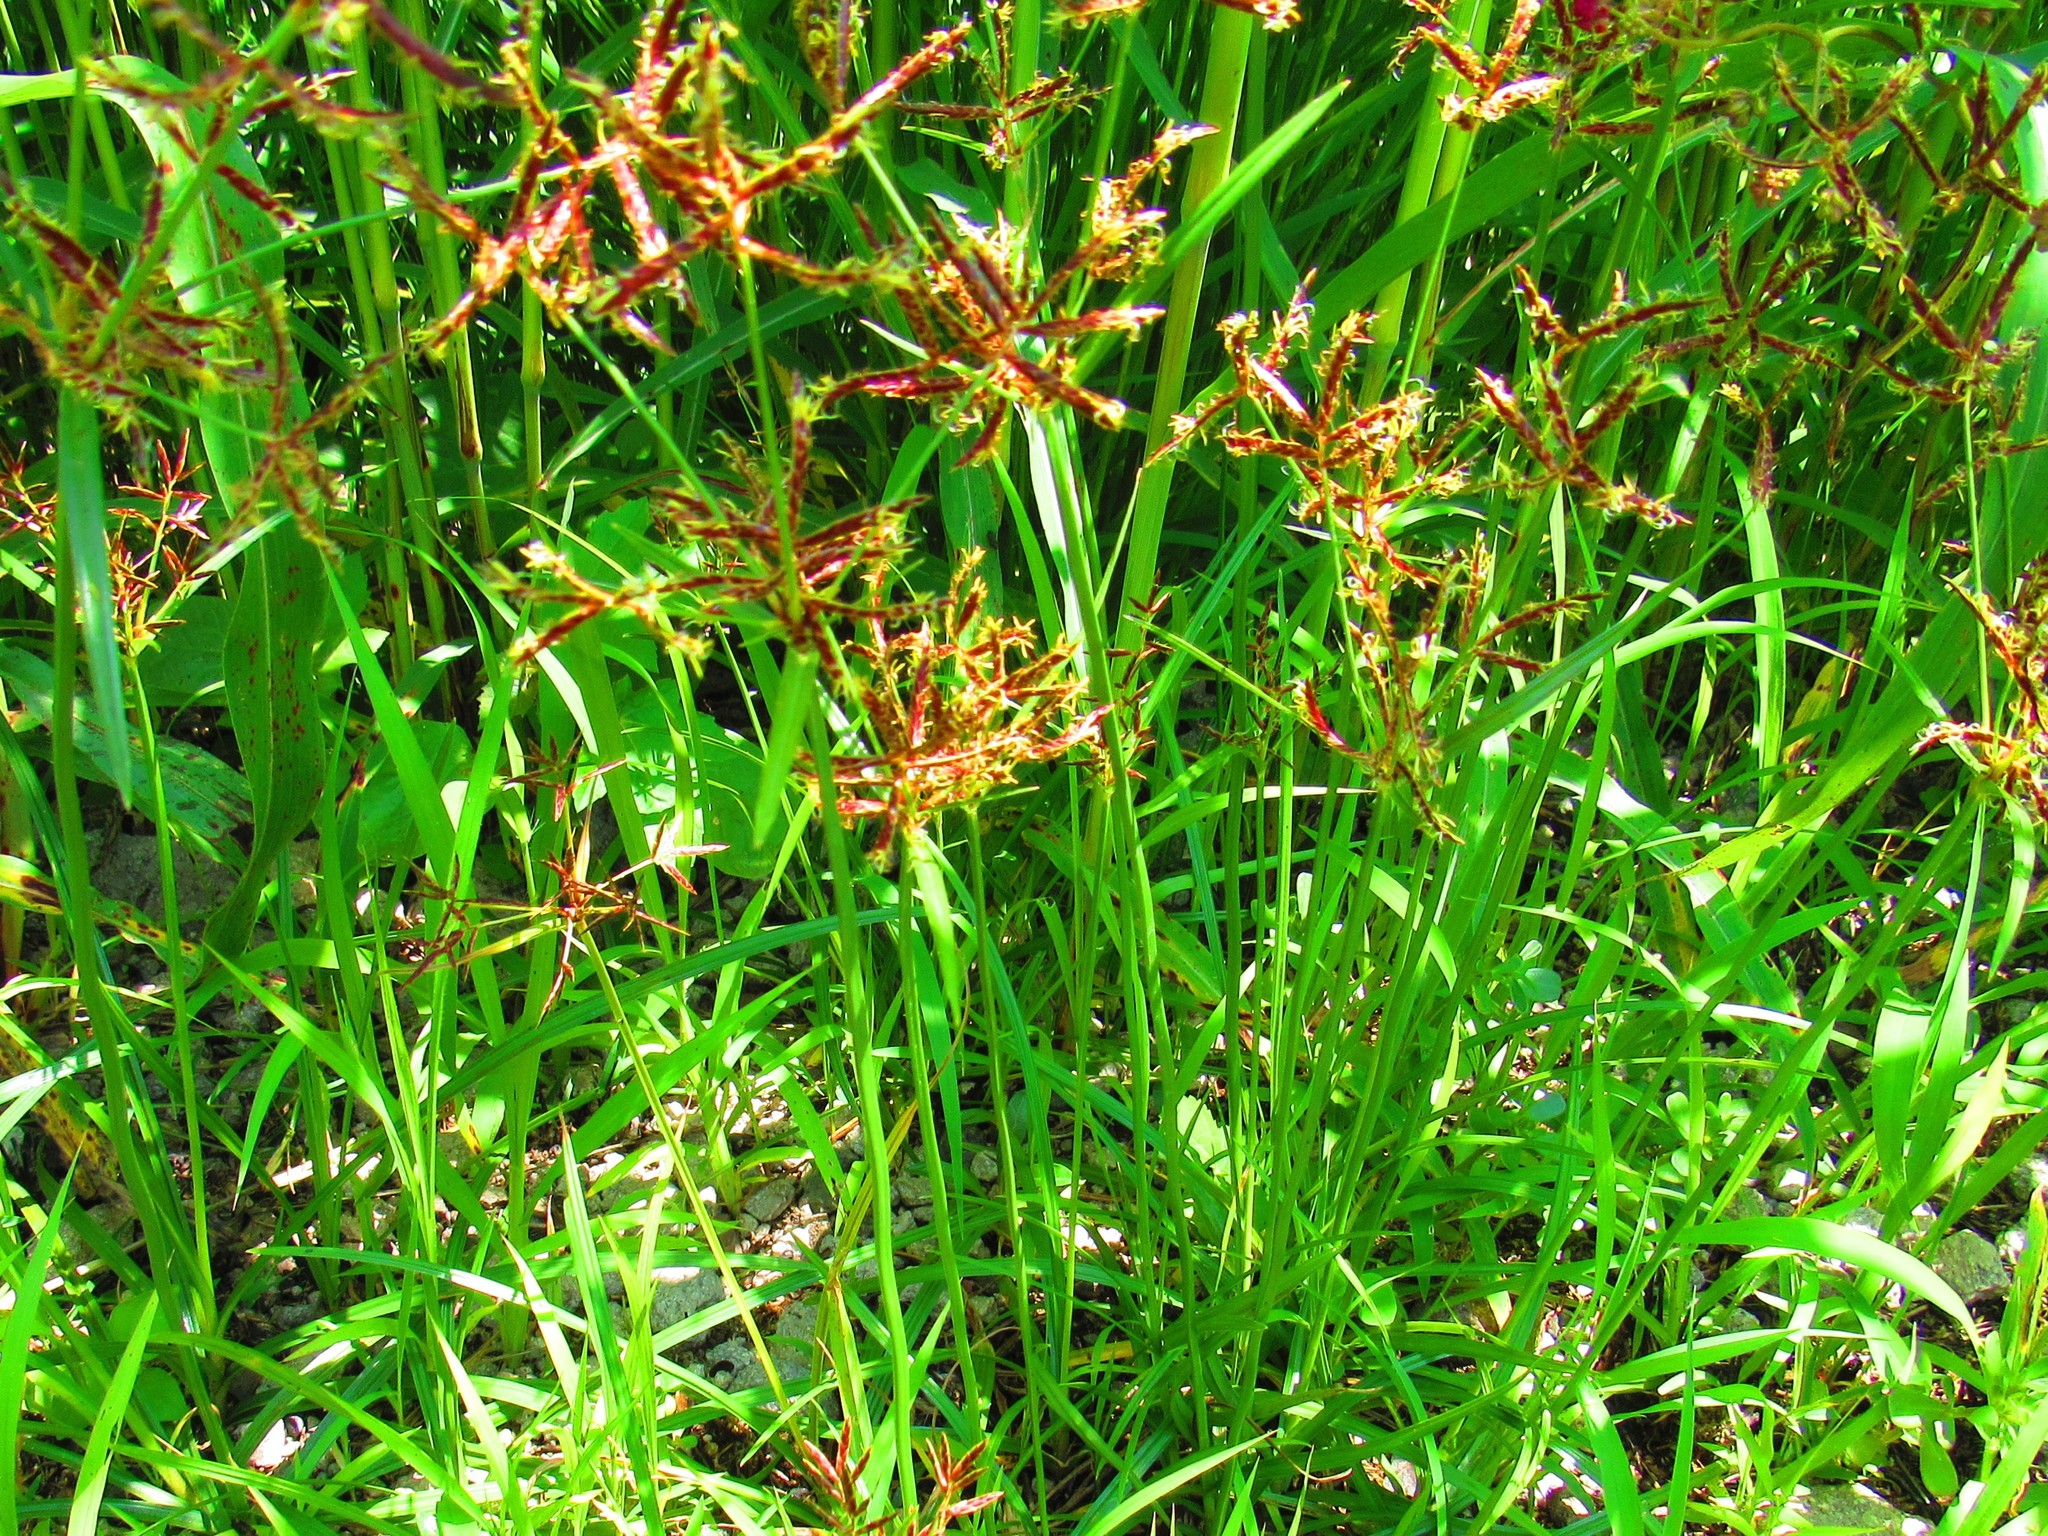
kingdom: Plantae
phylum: Tracheophyta
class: Liliopsida
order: Poales
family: Cyperaceae
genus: Cyperus
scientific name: Cyperus rotundus
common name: Nutgrass
